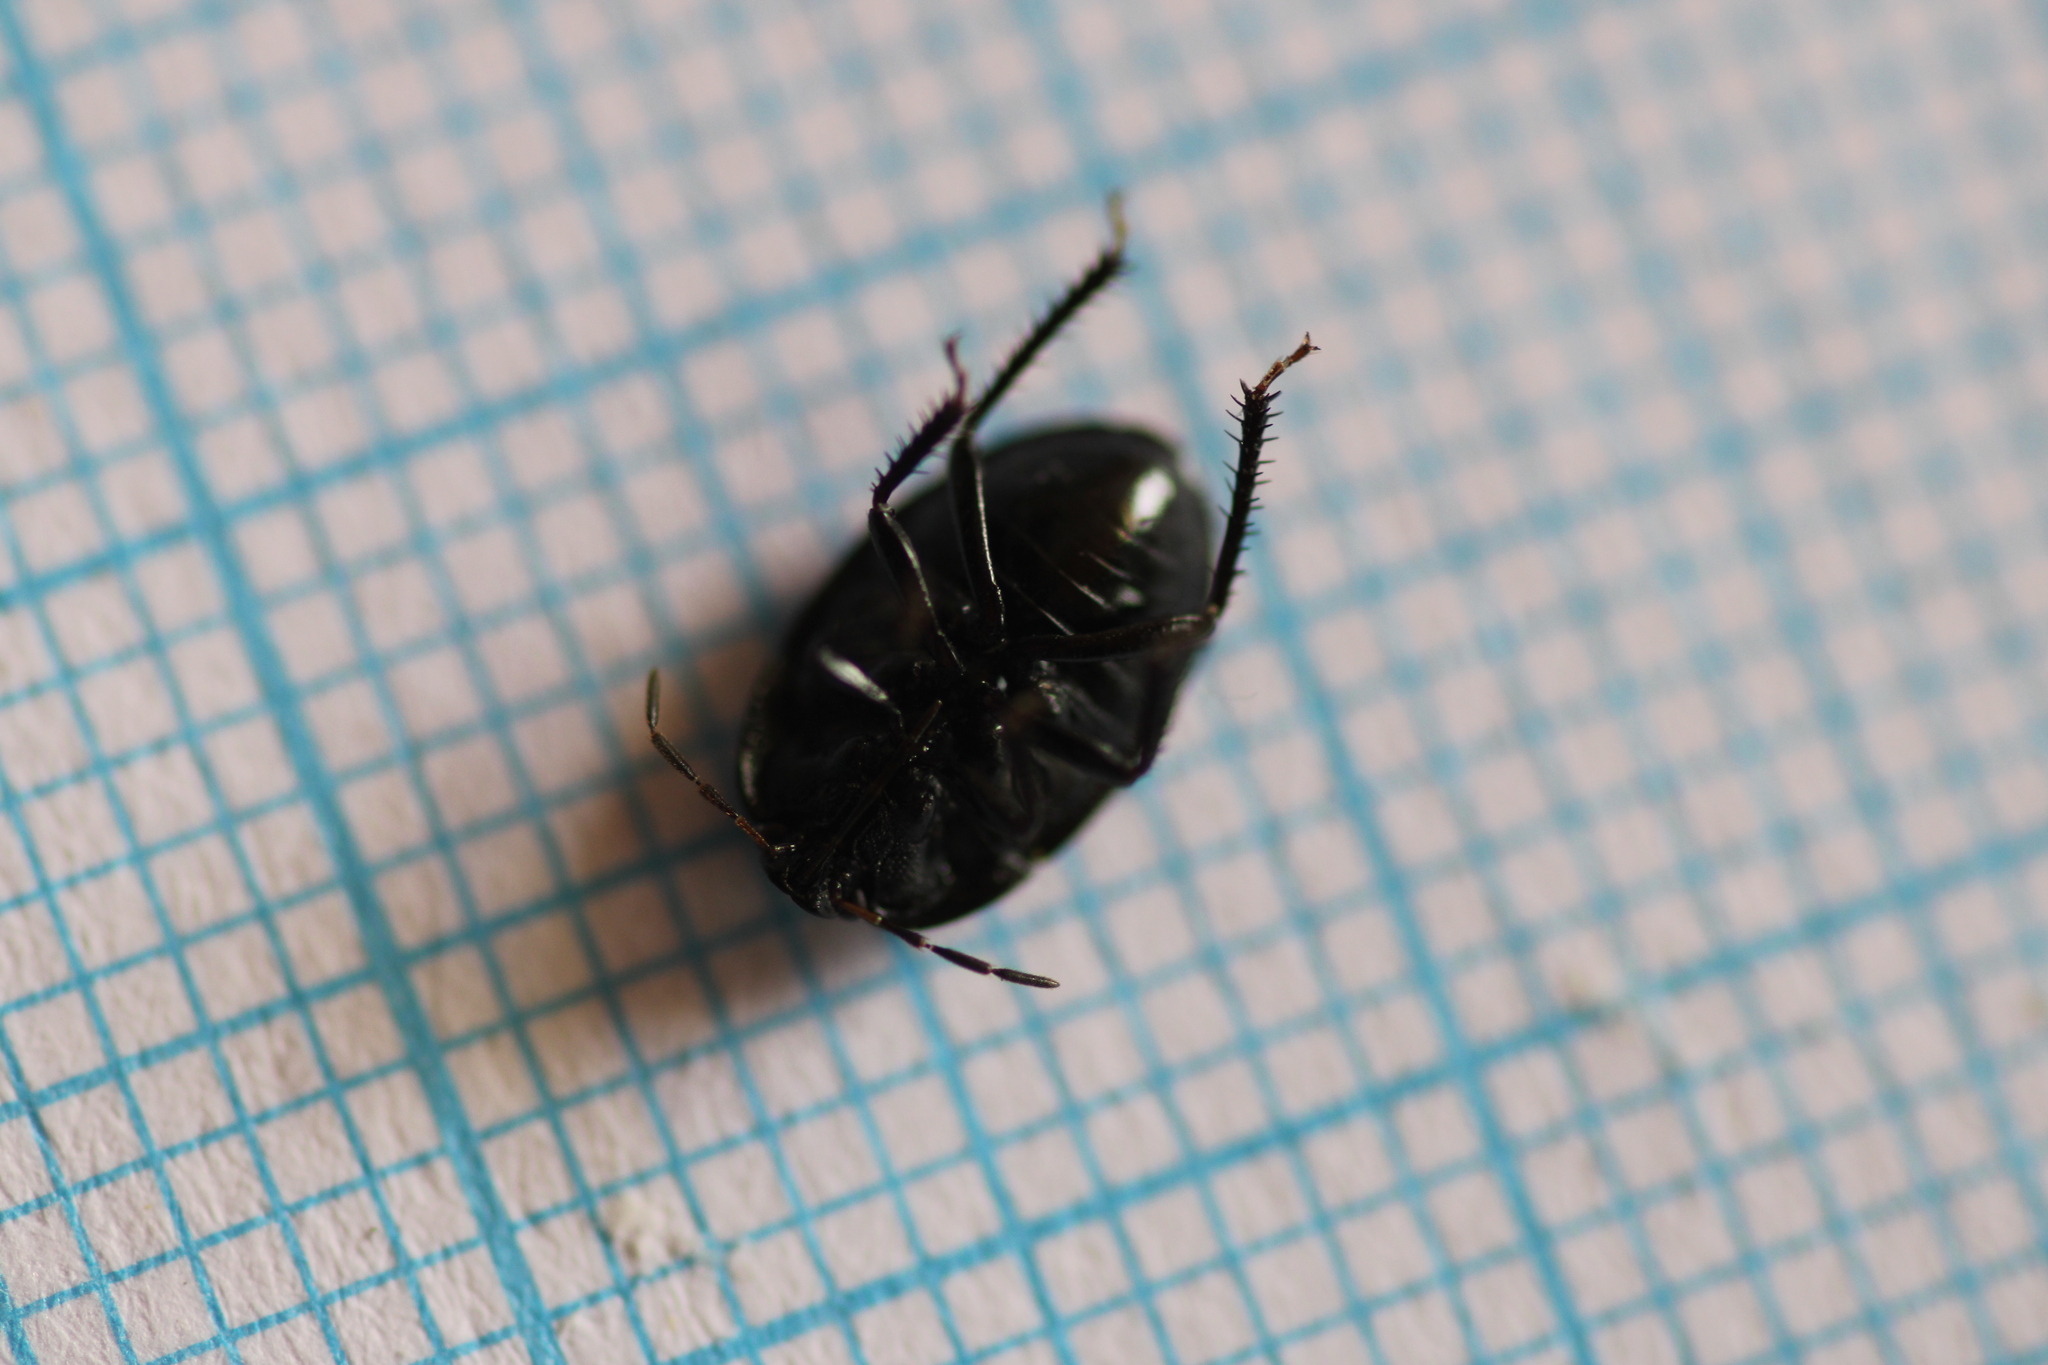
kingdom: Animalia
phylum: Arthropoda
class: Insecta
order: Hemiptera
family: Cydnidae
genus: Sehirus
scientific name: Sehirus luctuosus
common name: Forget-me-not shieldbug
